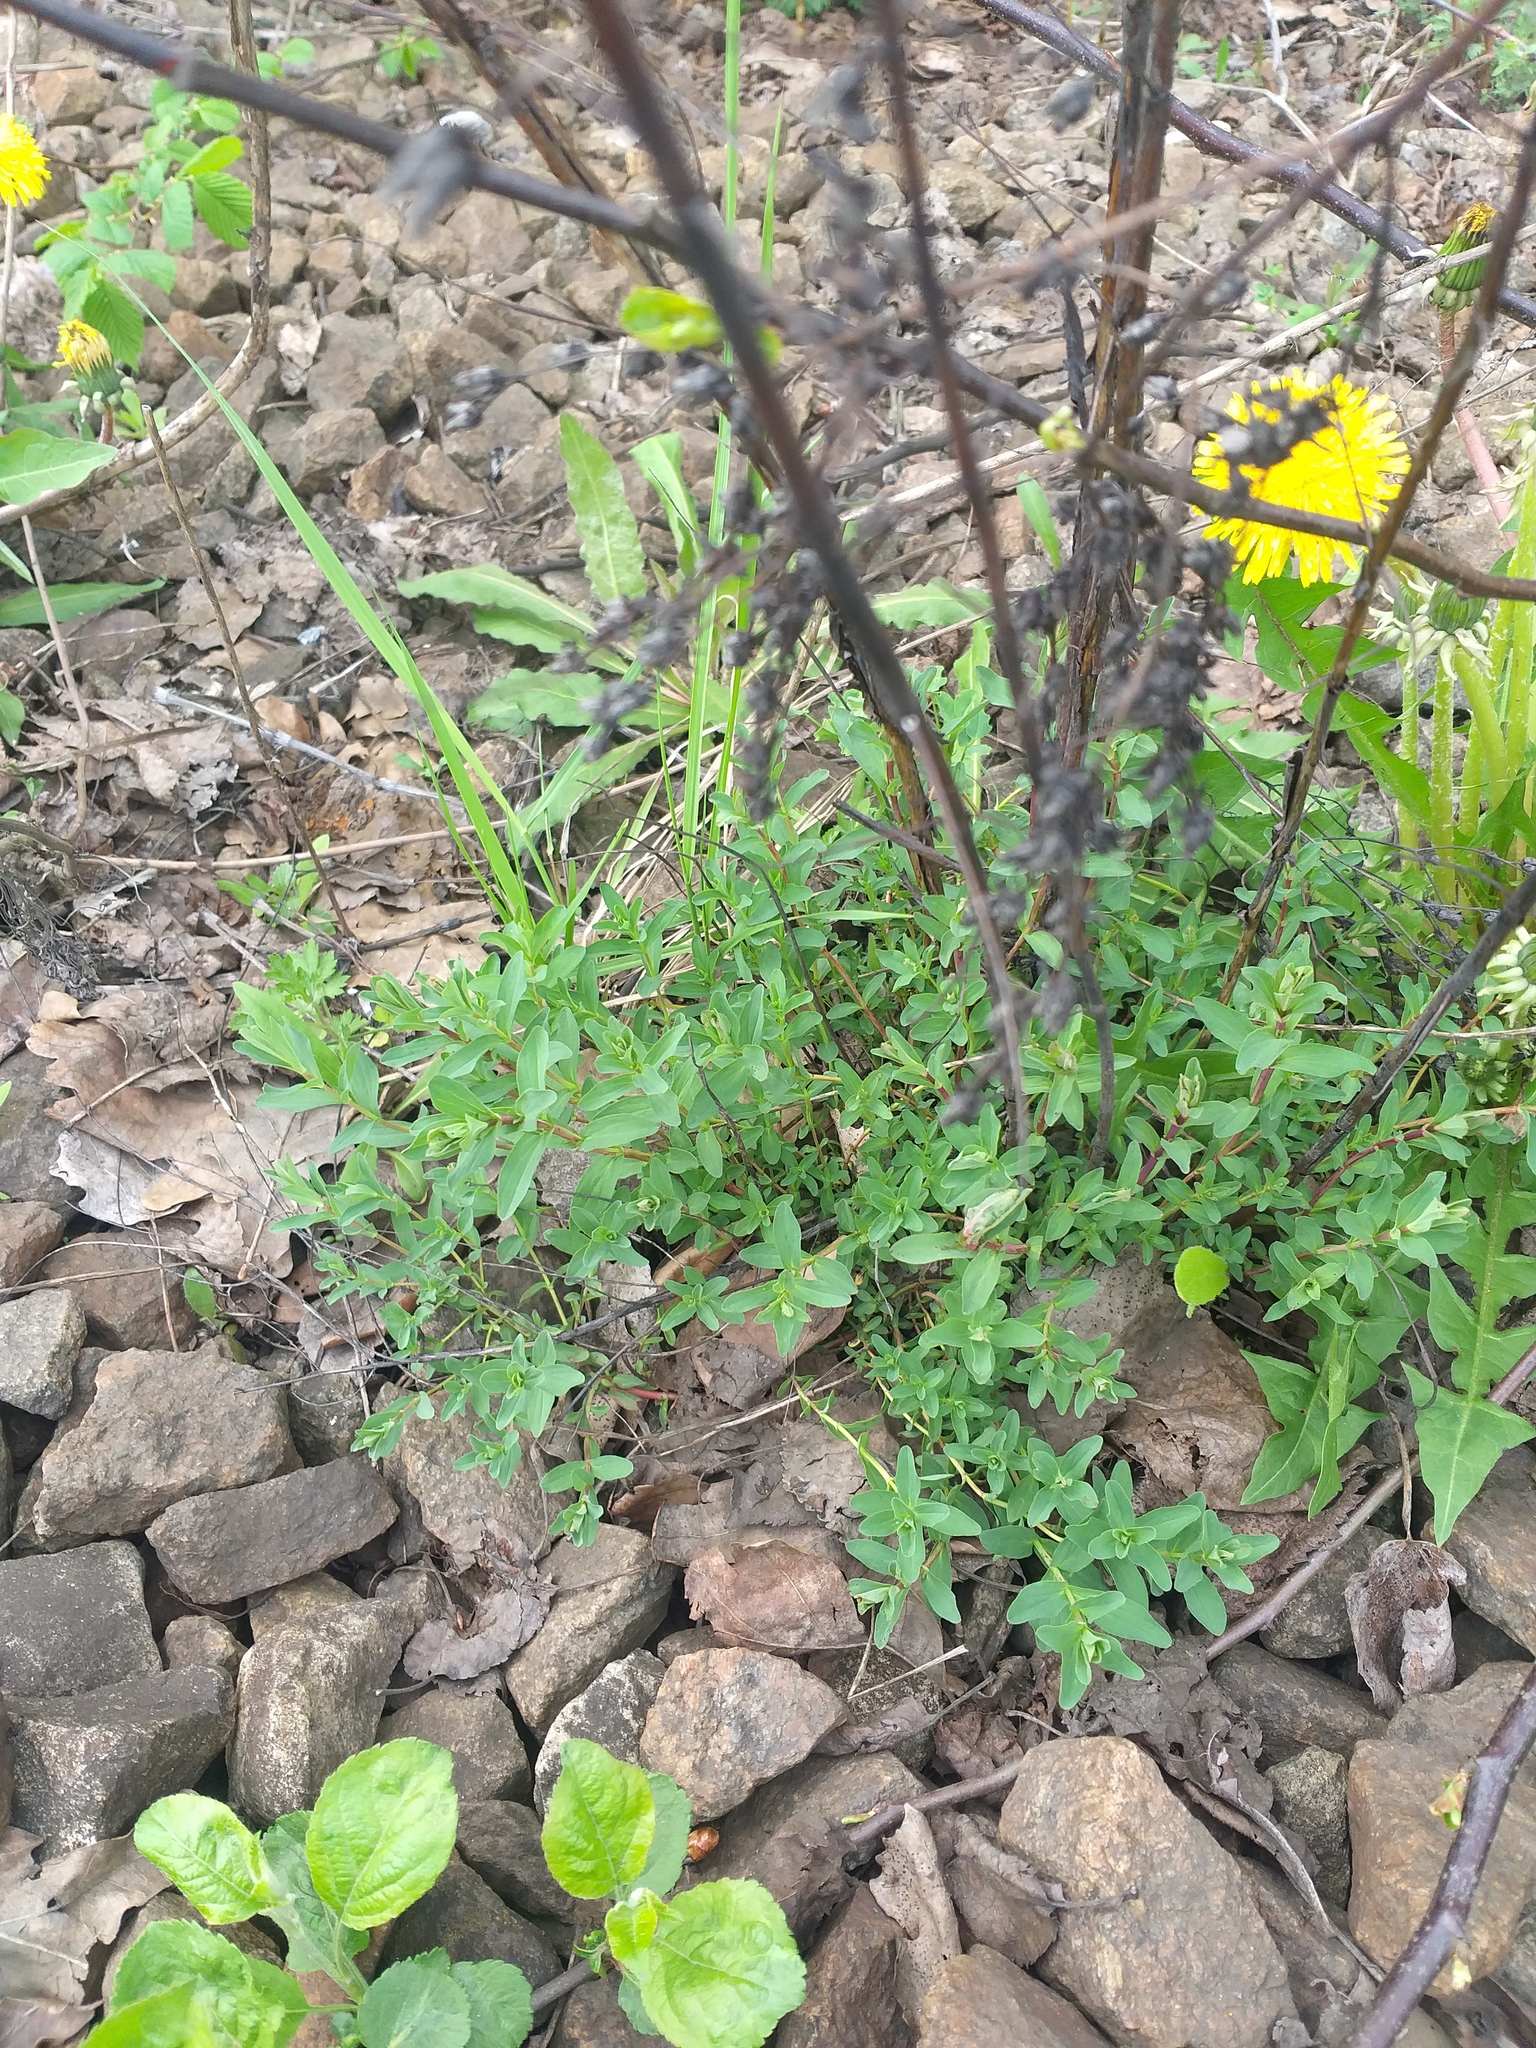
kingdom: Plantae
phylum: Tracheophyta
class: Magnoliopsida
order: Malpighiales
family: Hypericaceae
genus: Hypericum
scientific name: Hypericum perforatum
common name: Common st. johnswort
